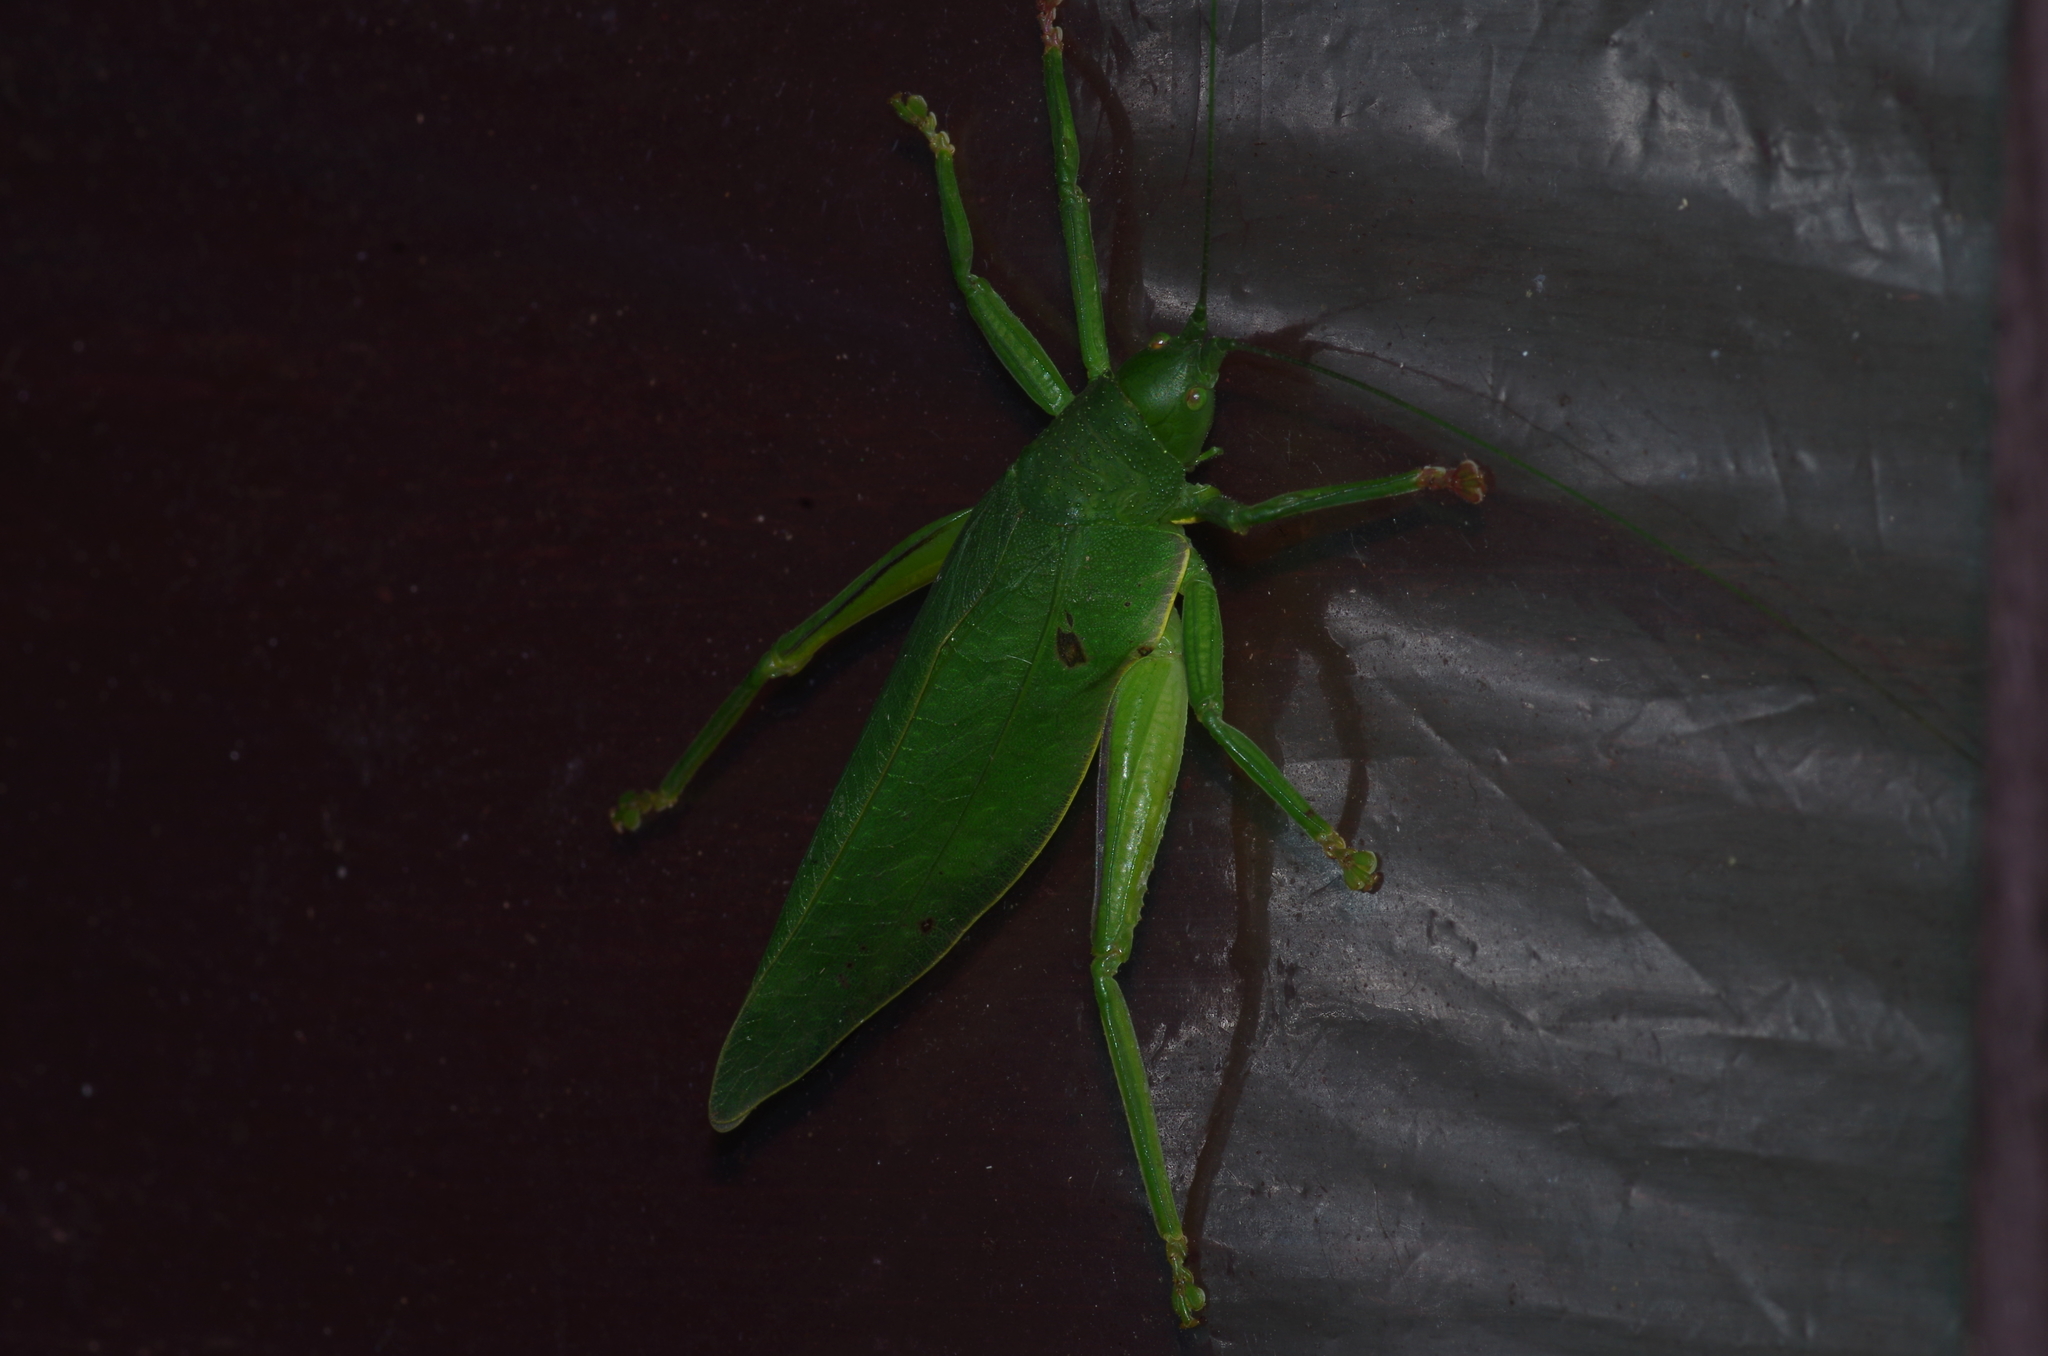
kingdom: Animalia
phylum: Arthropoda
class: Insecta
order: Orthoptera
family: Tettigoniidae
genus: Phyllomimus
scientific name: Phyllomimus sinicus
